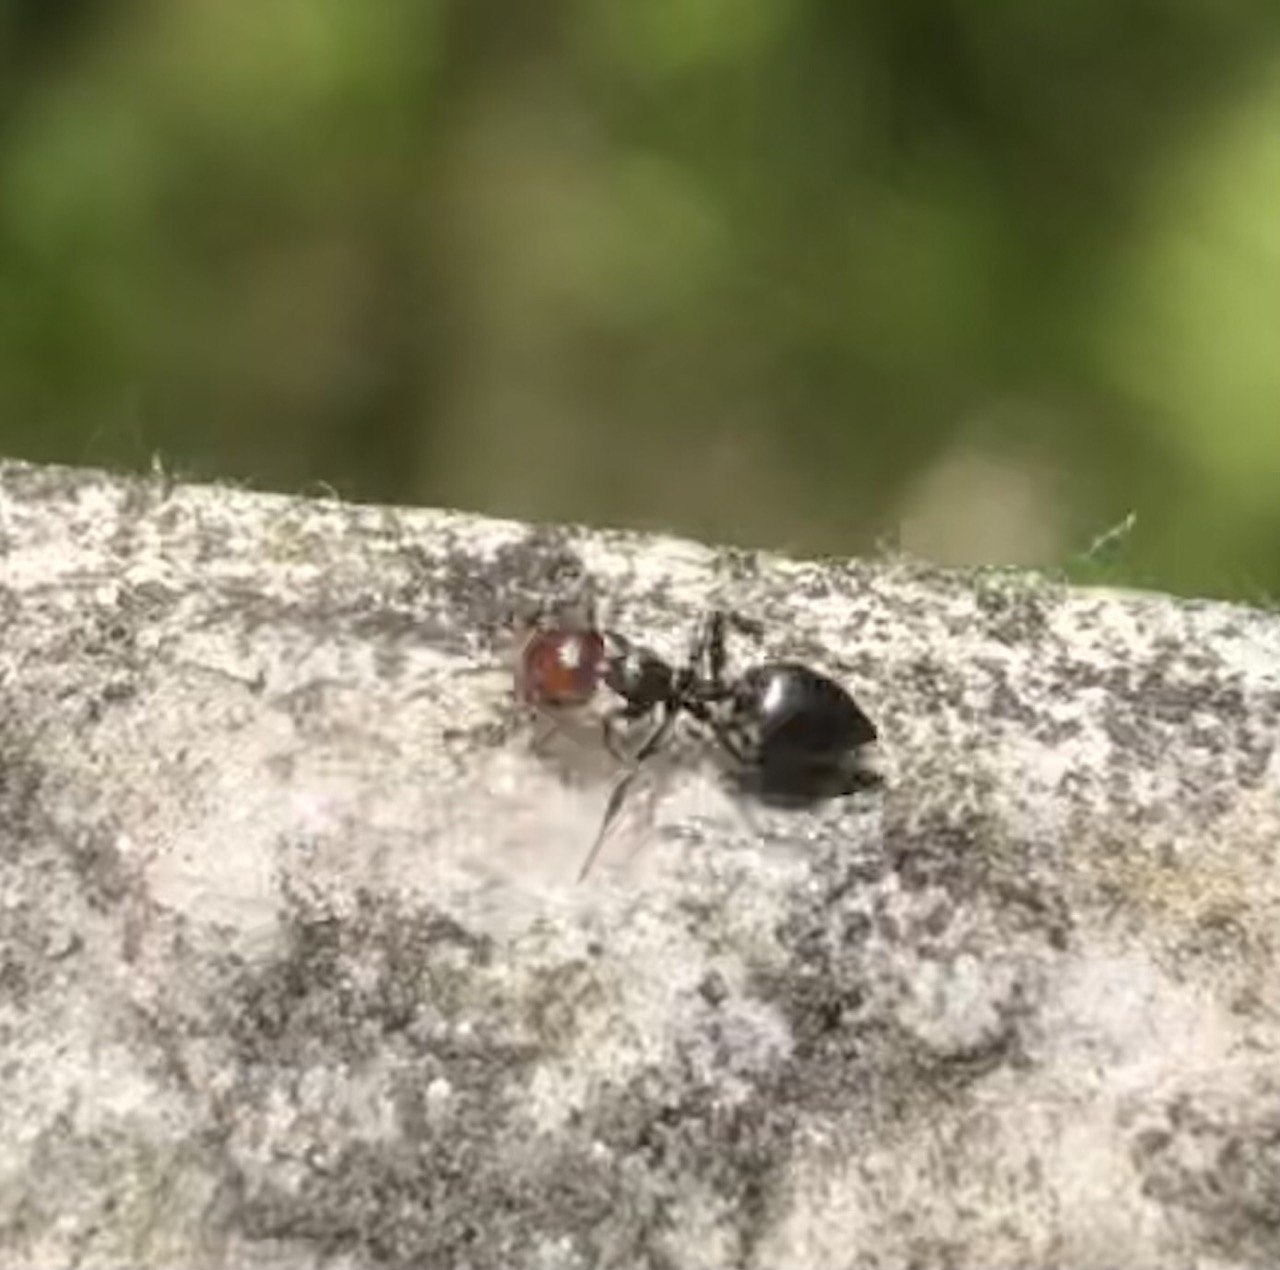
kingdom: Animalia
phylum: Arthropoda
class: Insecta
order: Hymenoptera
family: Formicidae
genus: Crematogaster
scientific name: Crematogaster scutellaris
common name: Fourmi du liège
